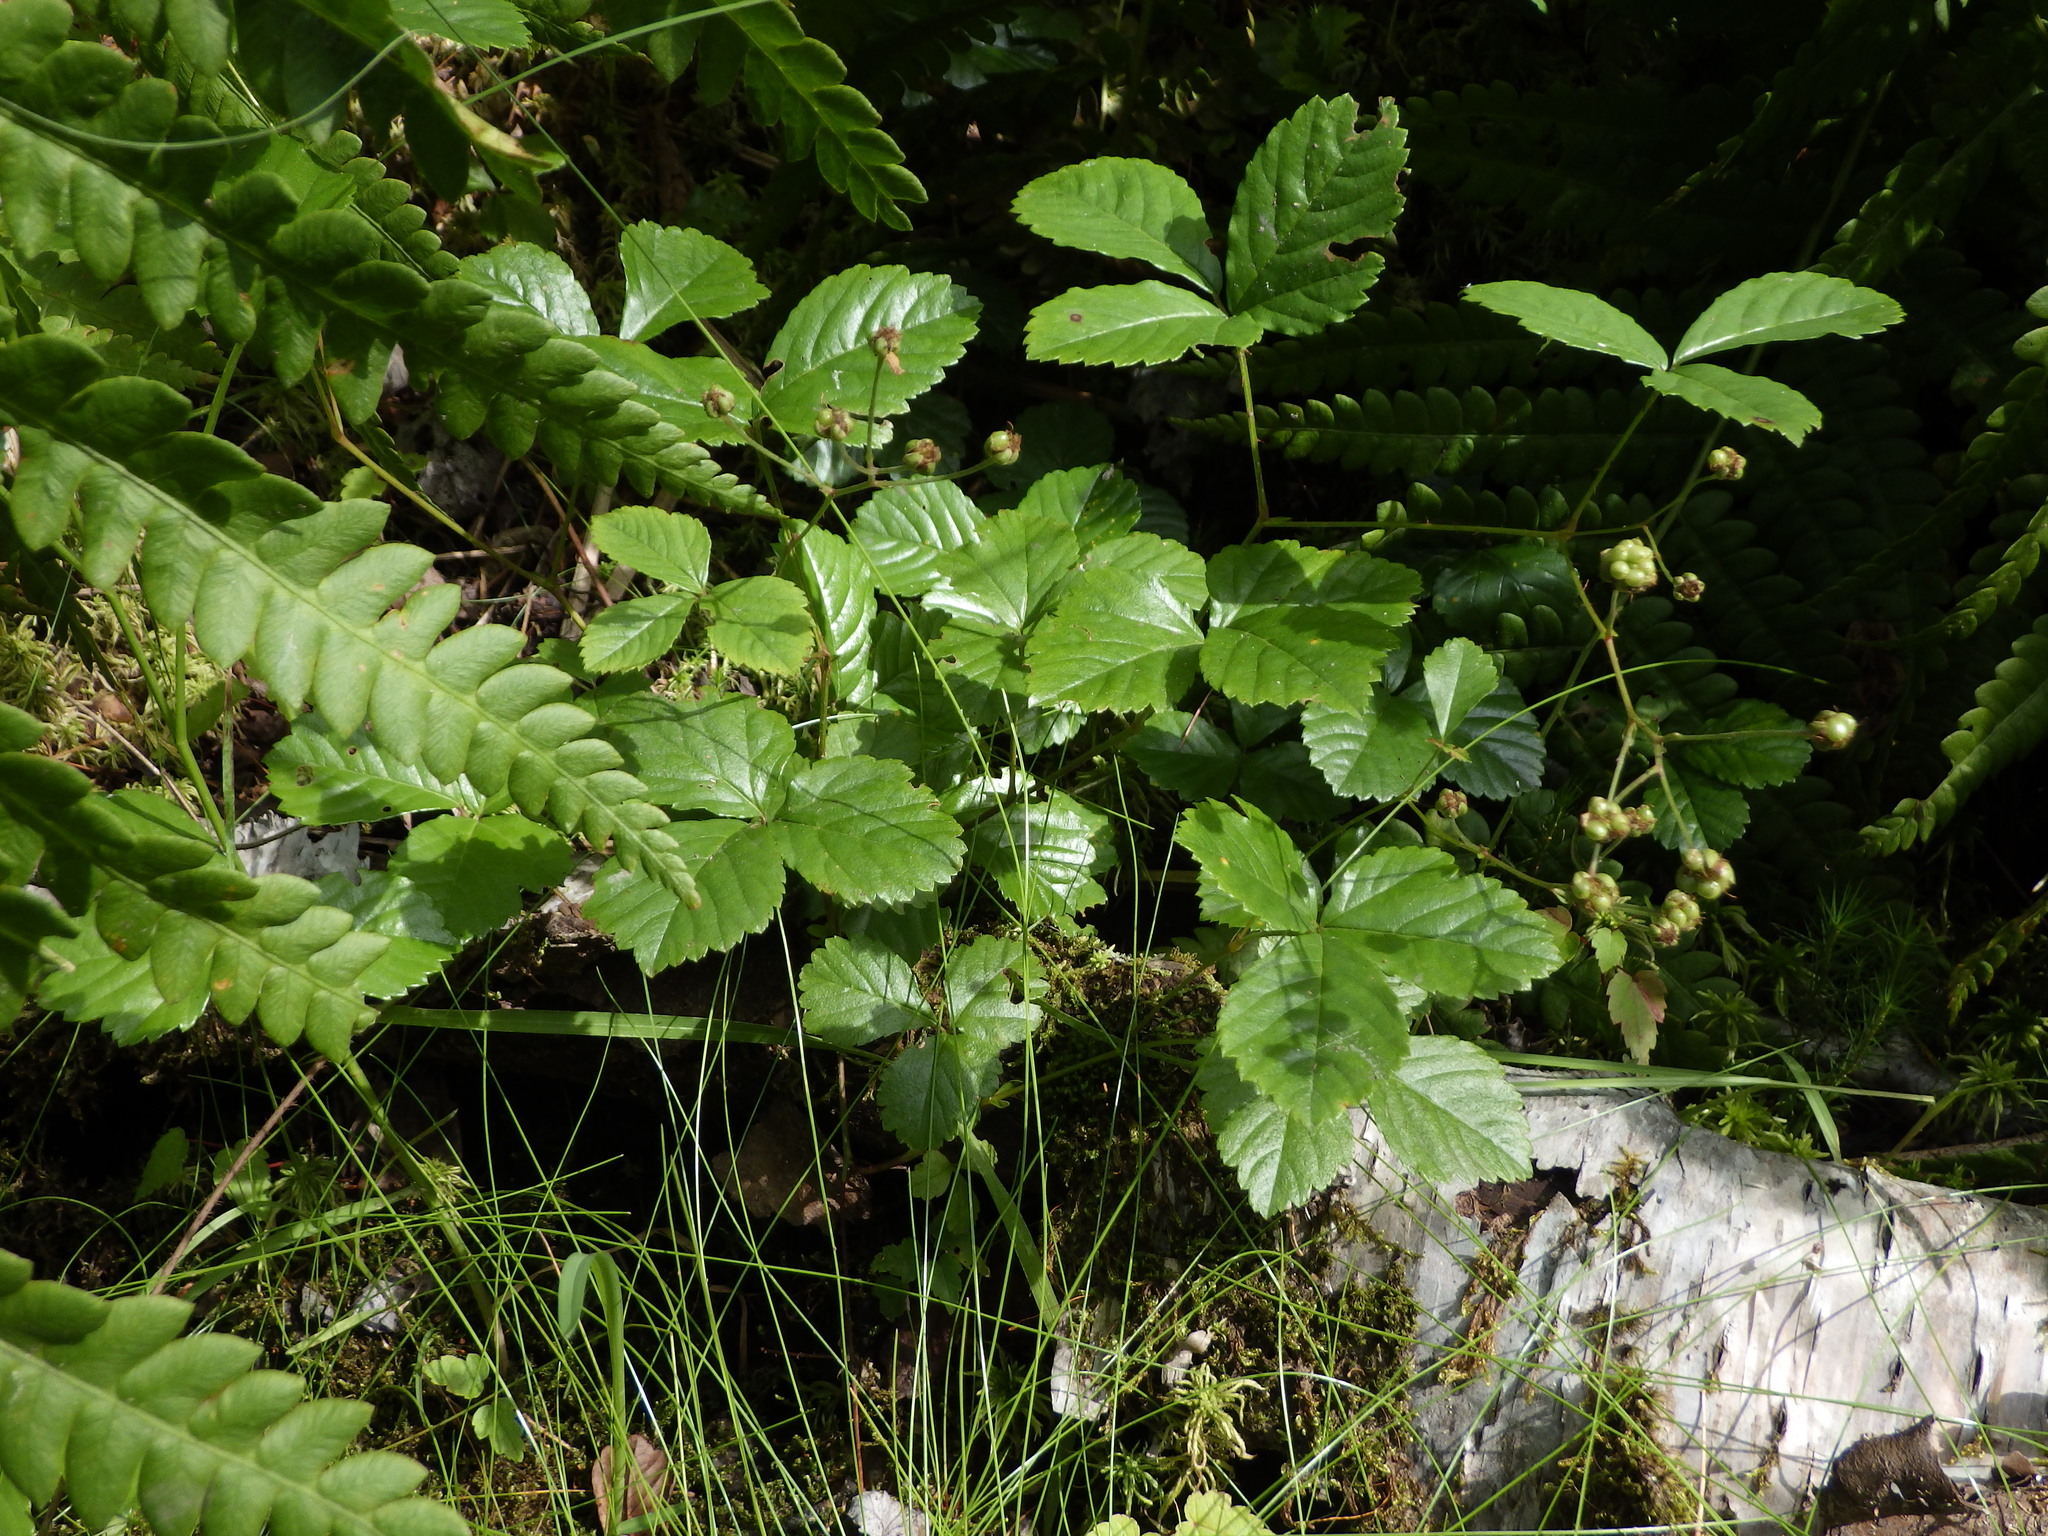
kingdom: Plantae
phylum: Tracheophyta
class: Magnoliopsida
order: Rosales
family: Rosaceae
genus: Rubus
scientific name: Rubus hispidus
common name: Running blackberry
